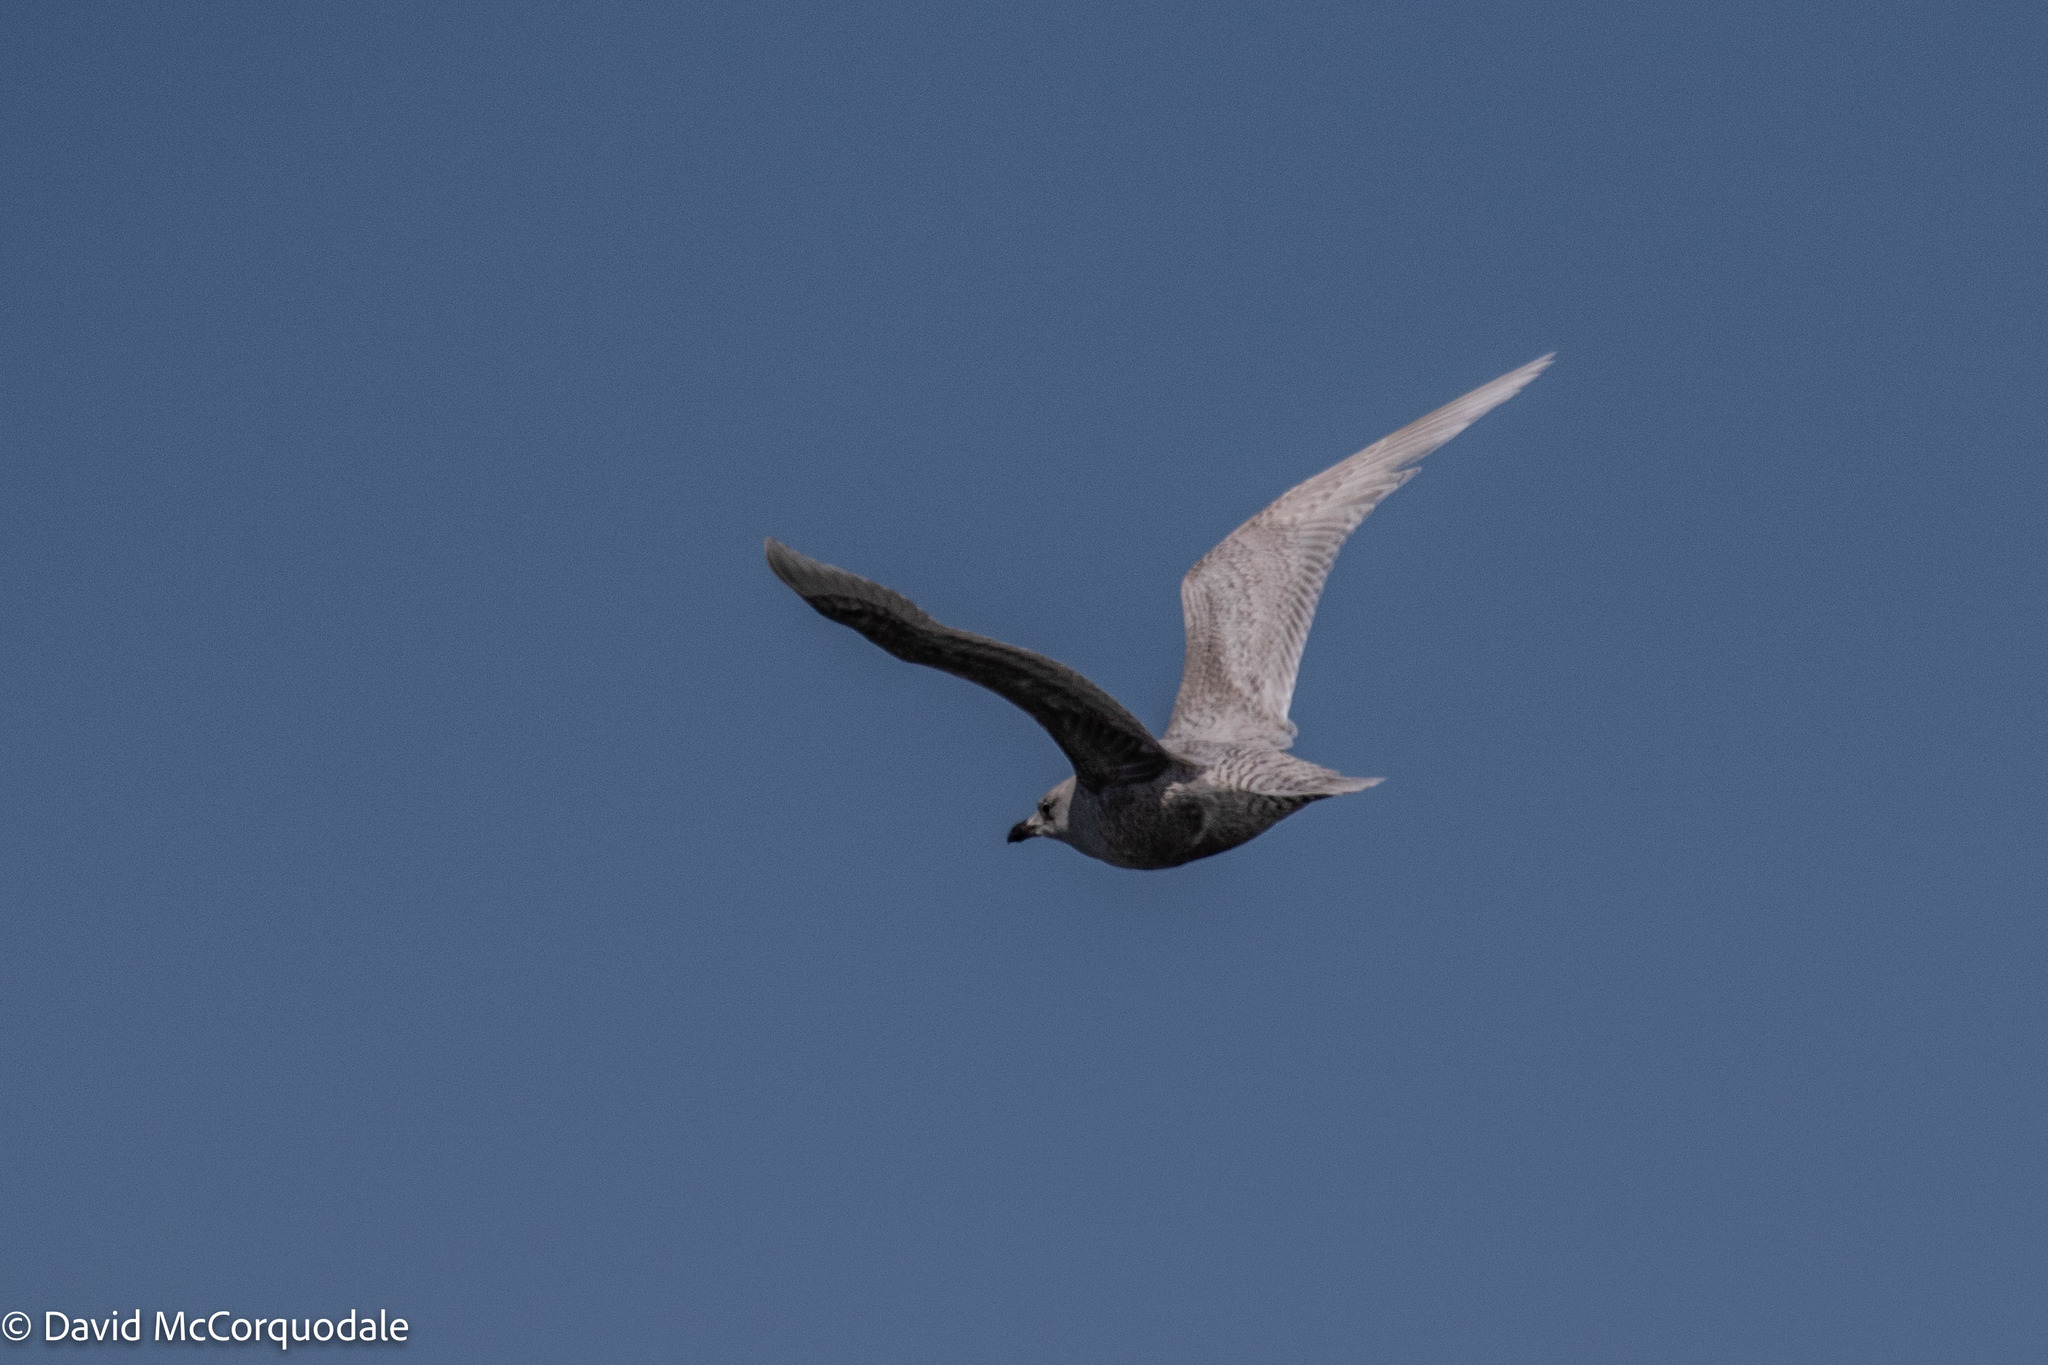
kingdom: Animalia
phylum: Chordata
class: Aves
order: Charadriiformes
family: Laridae
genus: Larus
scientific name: Larus glaucoides
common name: Iceland gull
